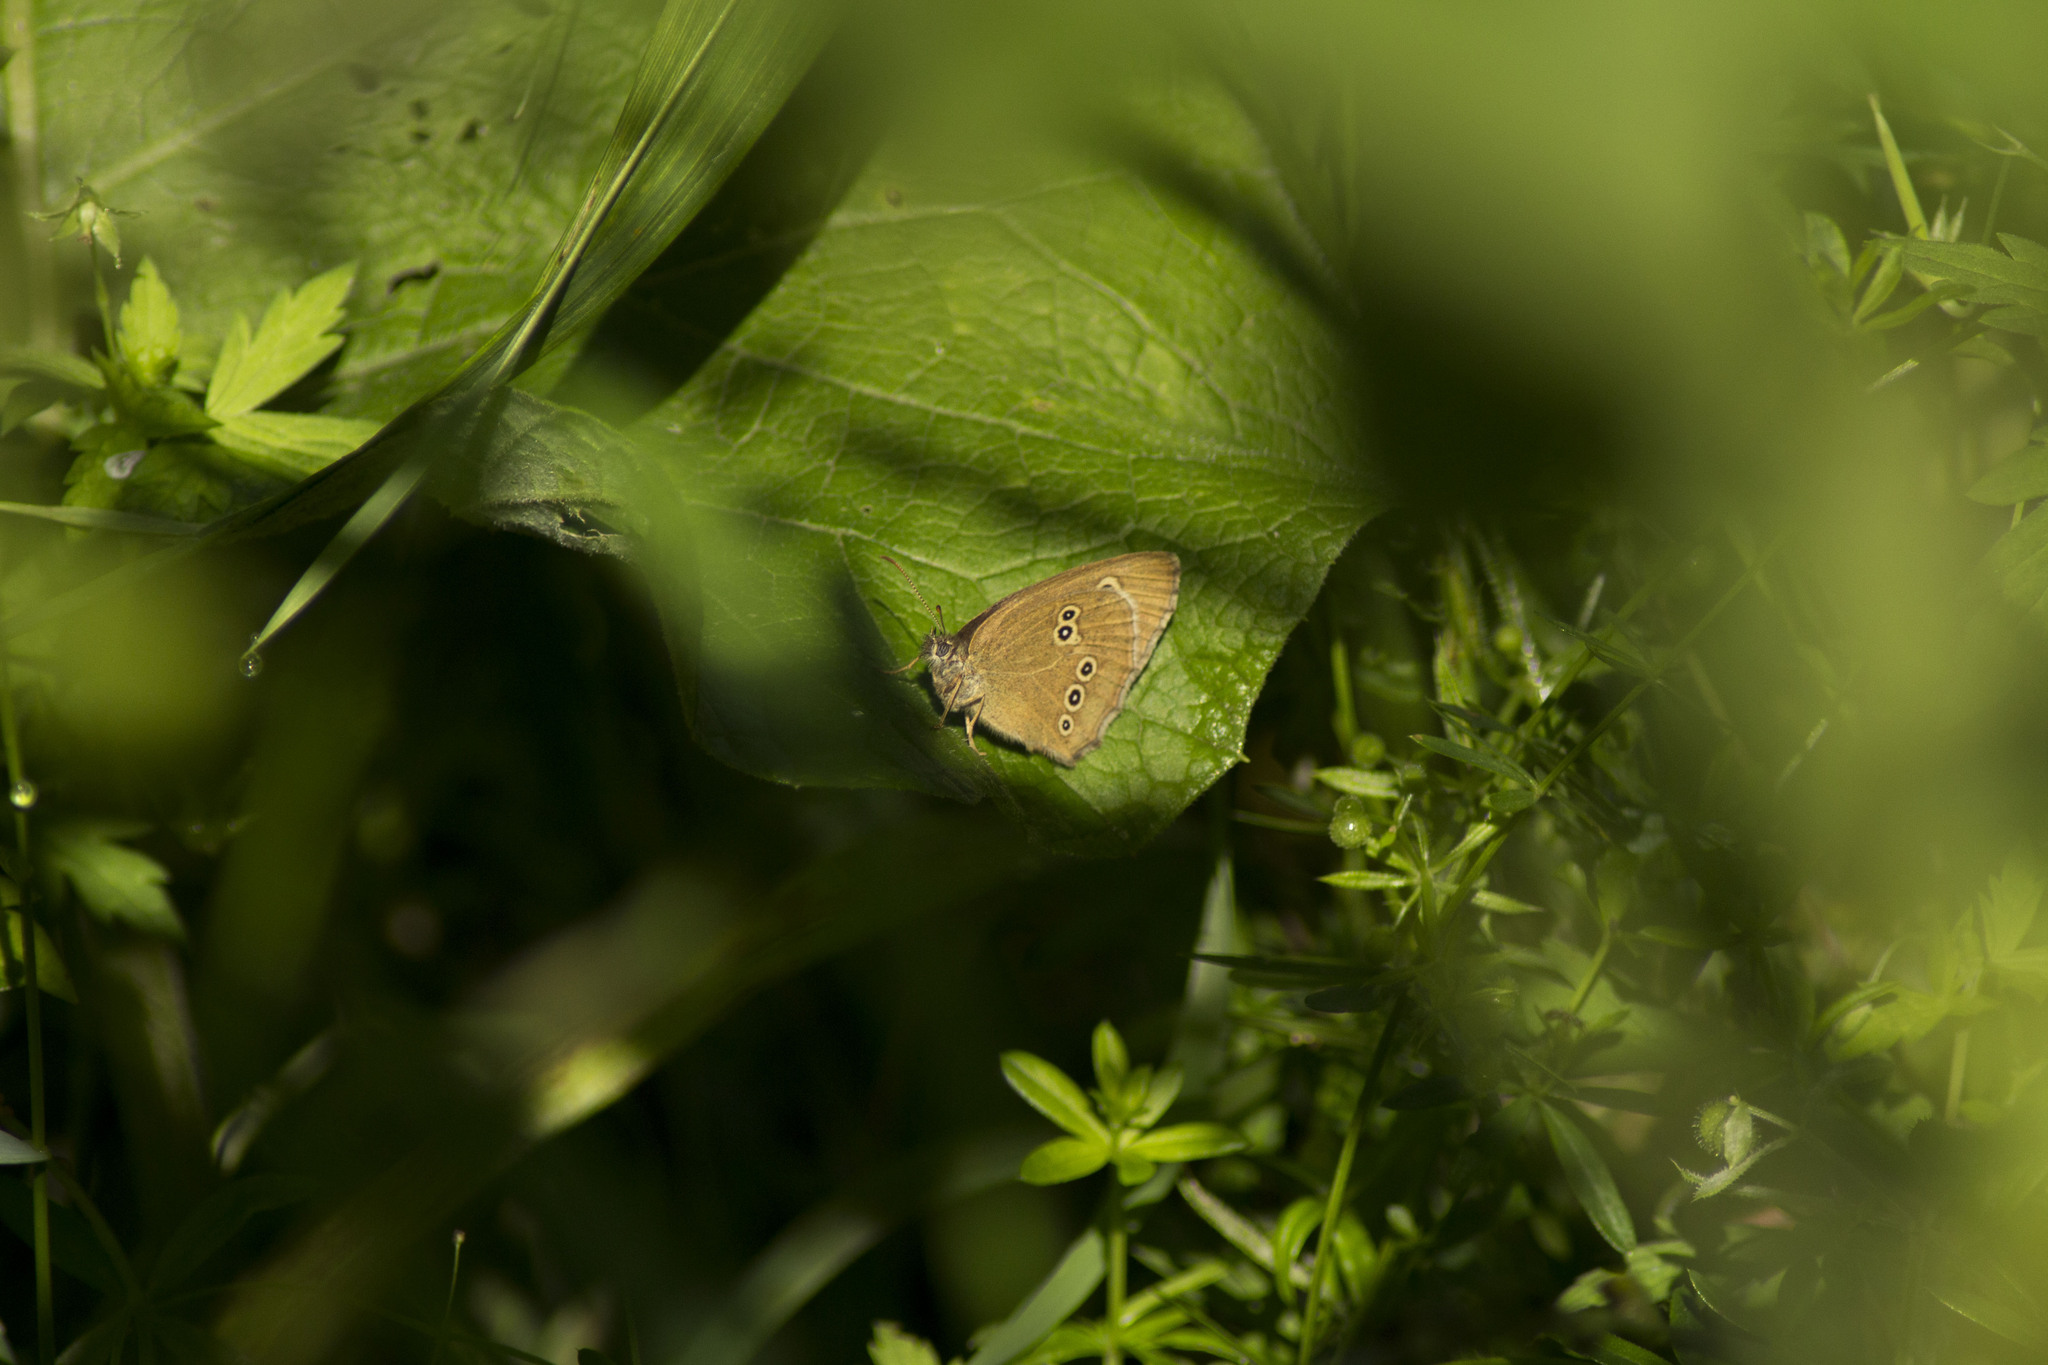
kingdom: Animalia
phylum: Arthropoda
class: Insecta
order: Lepidoptera
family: Nymphalidae
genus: Aphantopus
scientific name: Aphantopus hyperantus
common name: Ringlet
